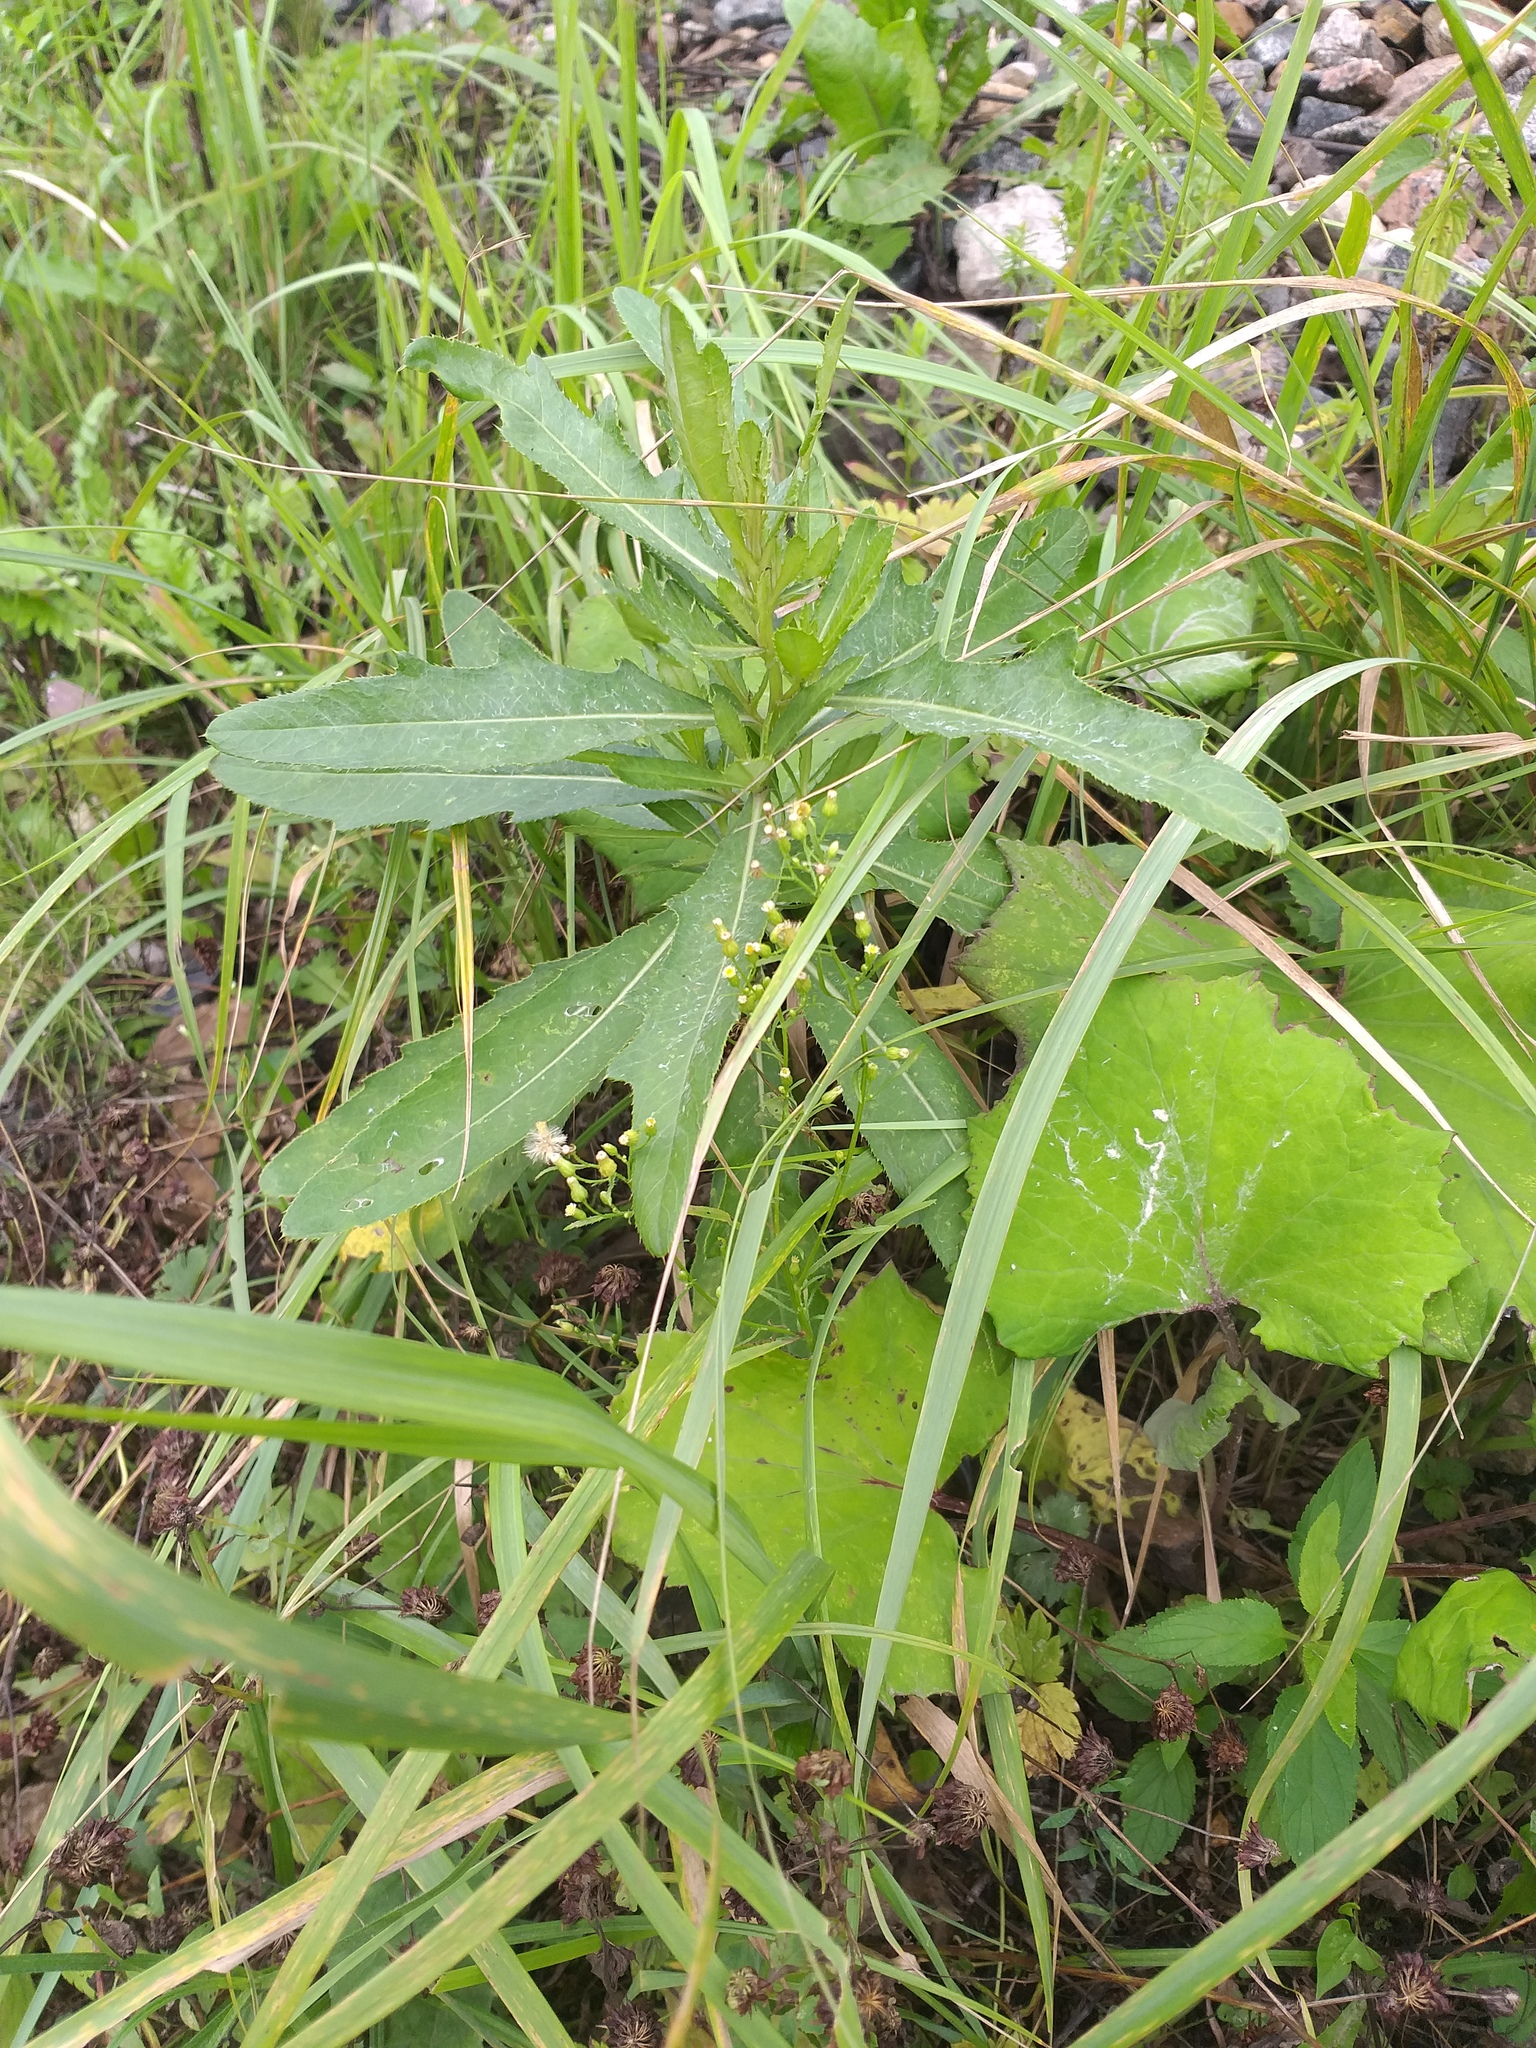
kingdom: Plantae
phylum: Tracheophyta
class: Magnoliopsida
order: Asterales
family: Asteraceae
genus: Erigeron
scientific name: Erigeron canadensis
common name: Canadian fleabane
